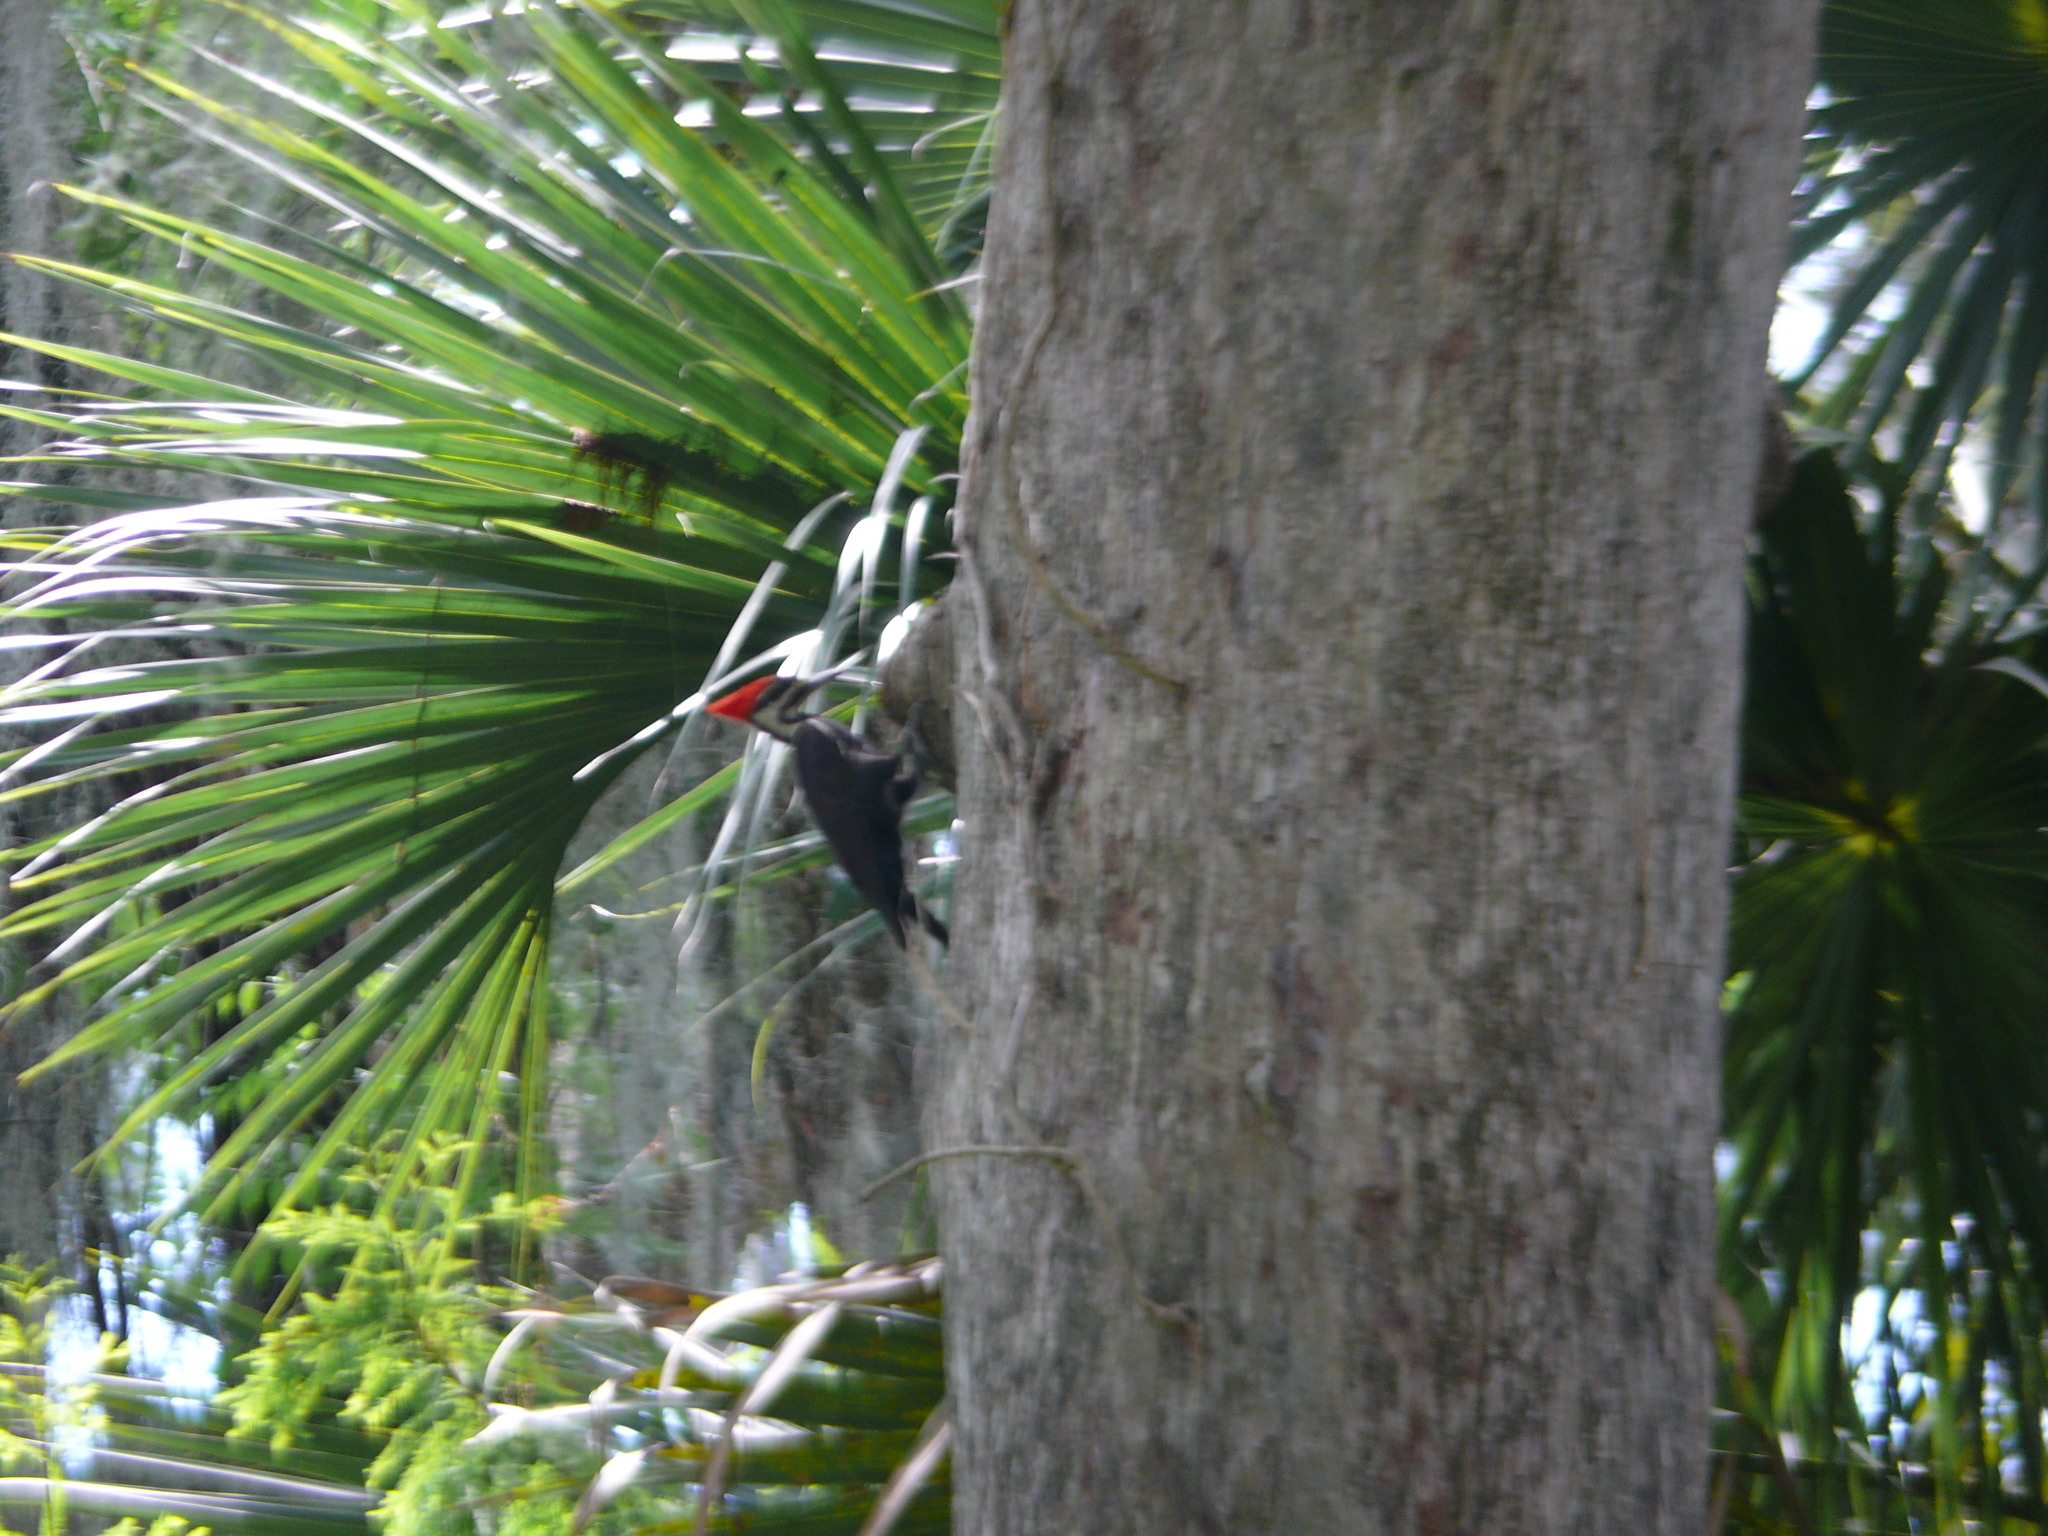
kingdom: Animalia
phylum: Chordata
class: Aves
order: Piciformes
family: Picidae
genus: Dryocopus
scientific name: Dryocopus pileatus
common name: Pileated woodpecker
